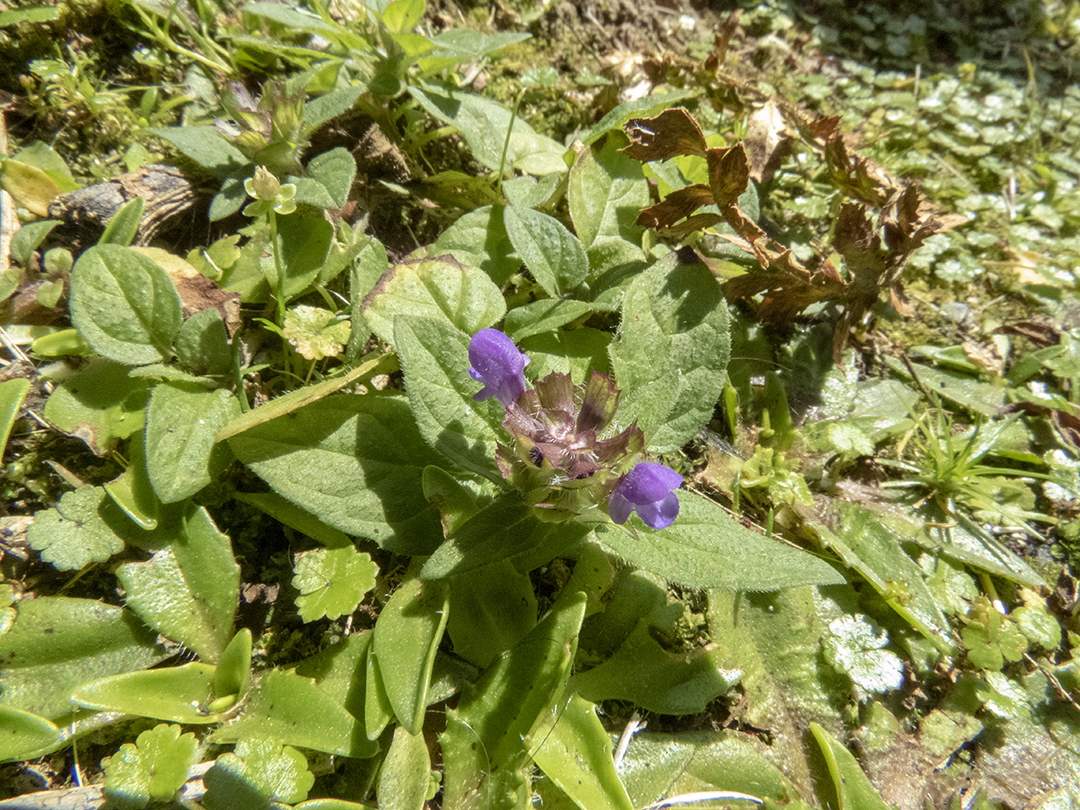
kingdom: Plantae
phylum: Tracheophyta
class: Magnoliopsida
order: Lamiales
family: Lamiaceae
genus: Prunella
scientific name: Prunella vulgaris
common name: Heal-all
